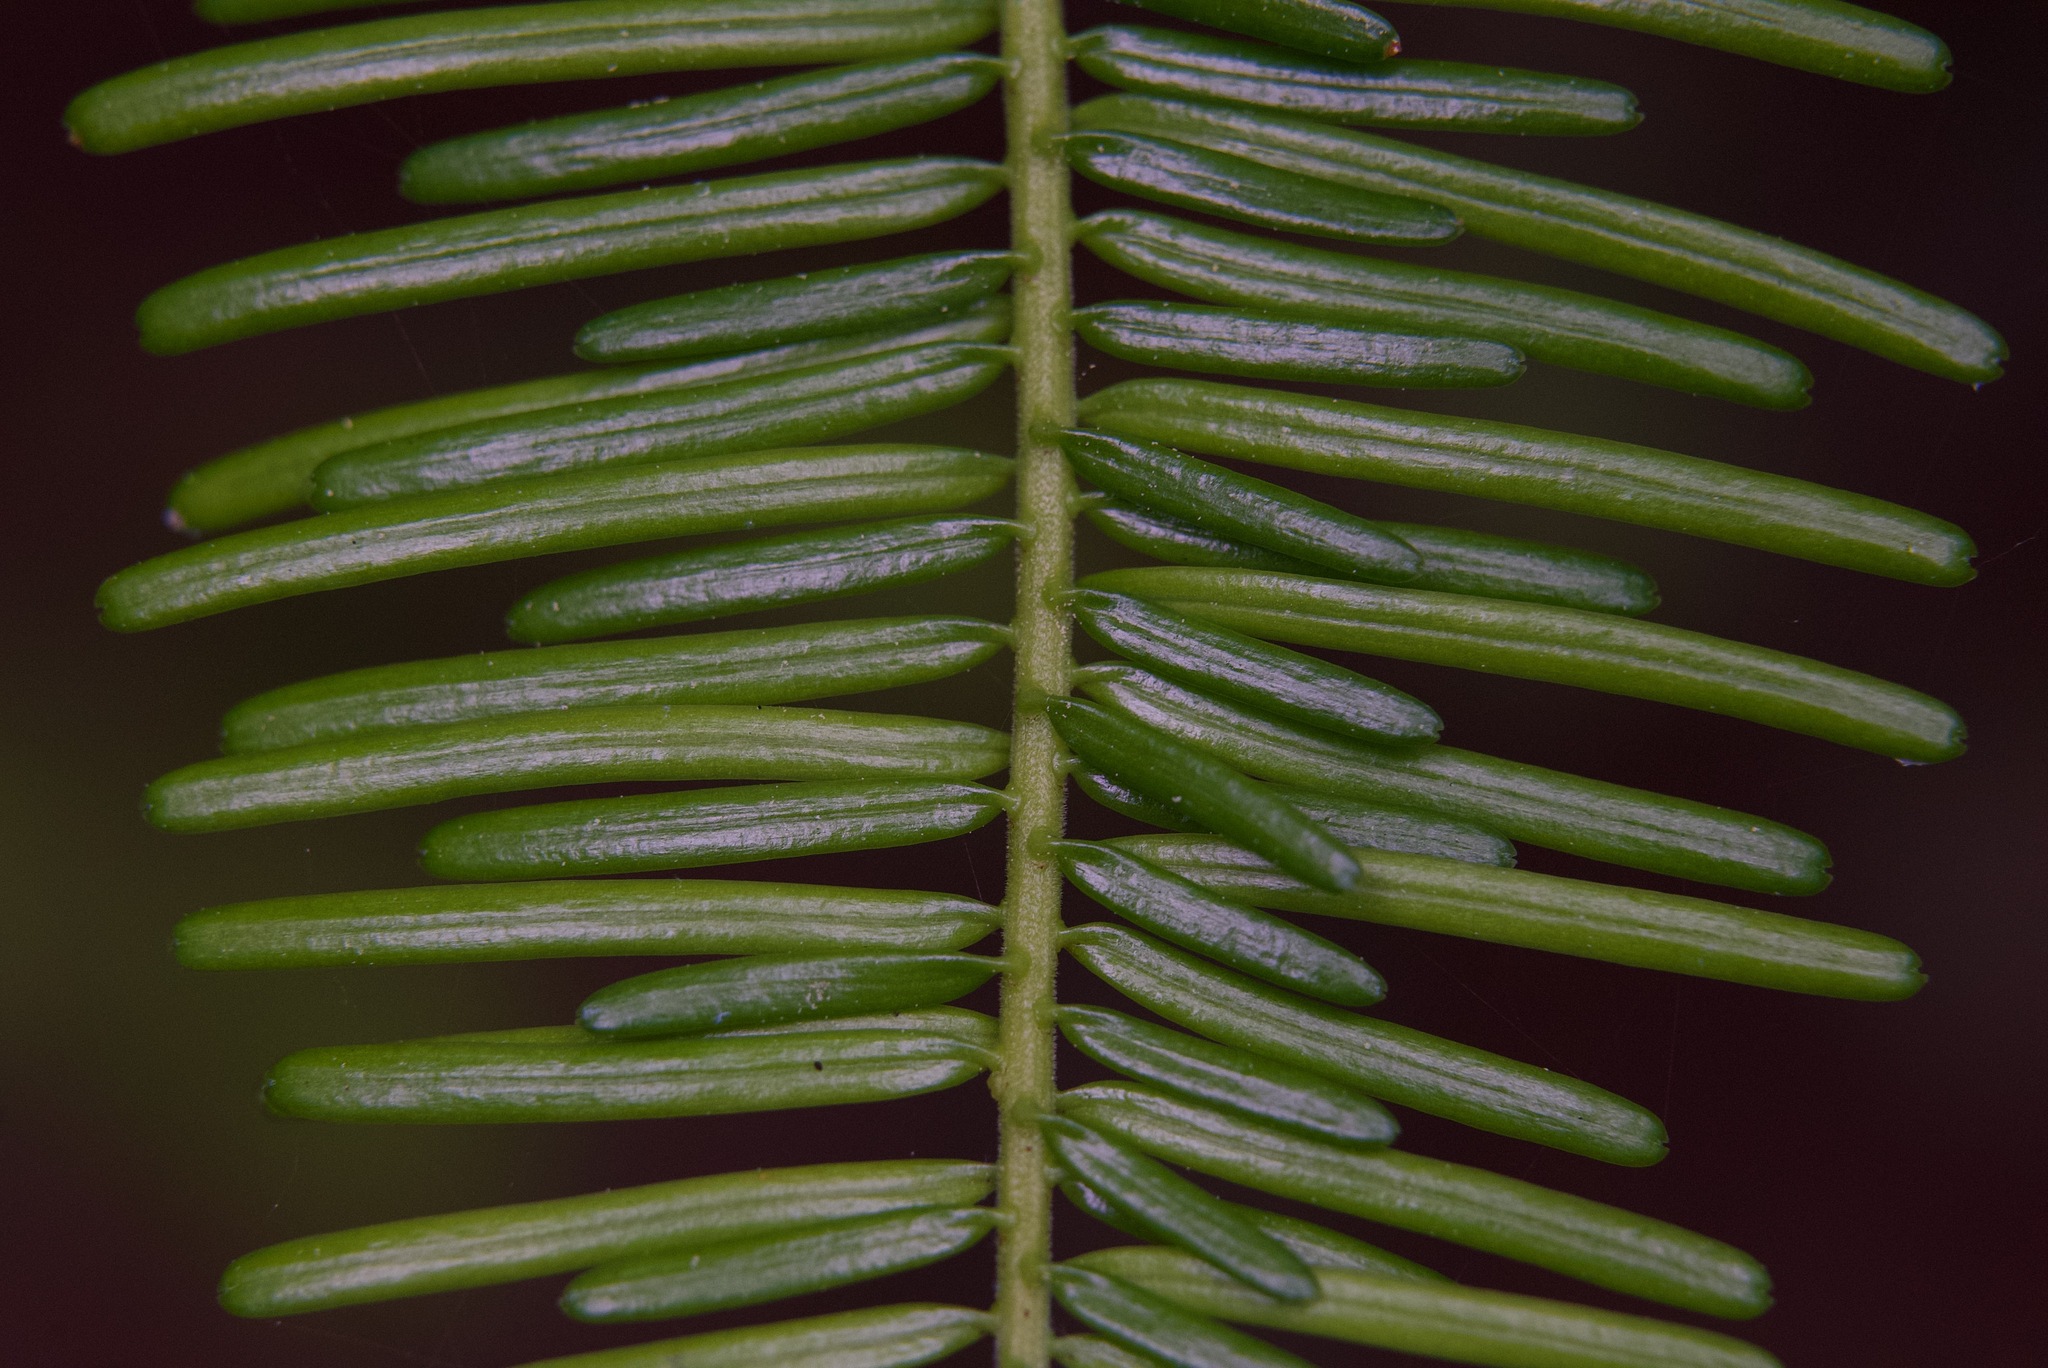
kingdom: Plantae
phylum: Tracheophyta
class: Pinopsida
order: Pinales
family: Pinaceae
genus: Abies
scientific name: Abies grandis
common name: Giant fir
